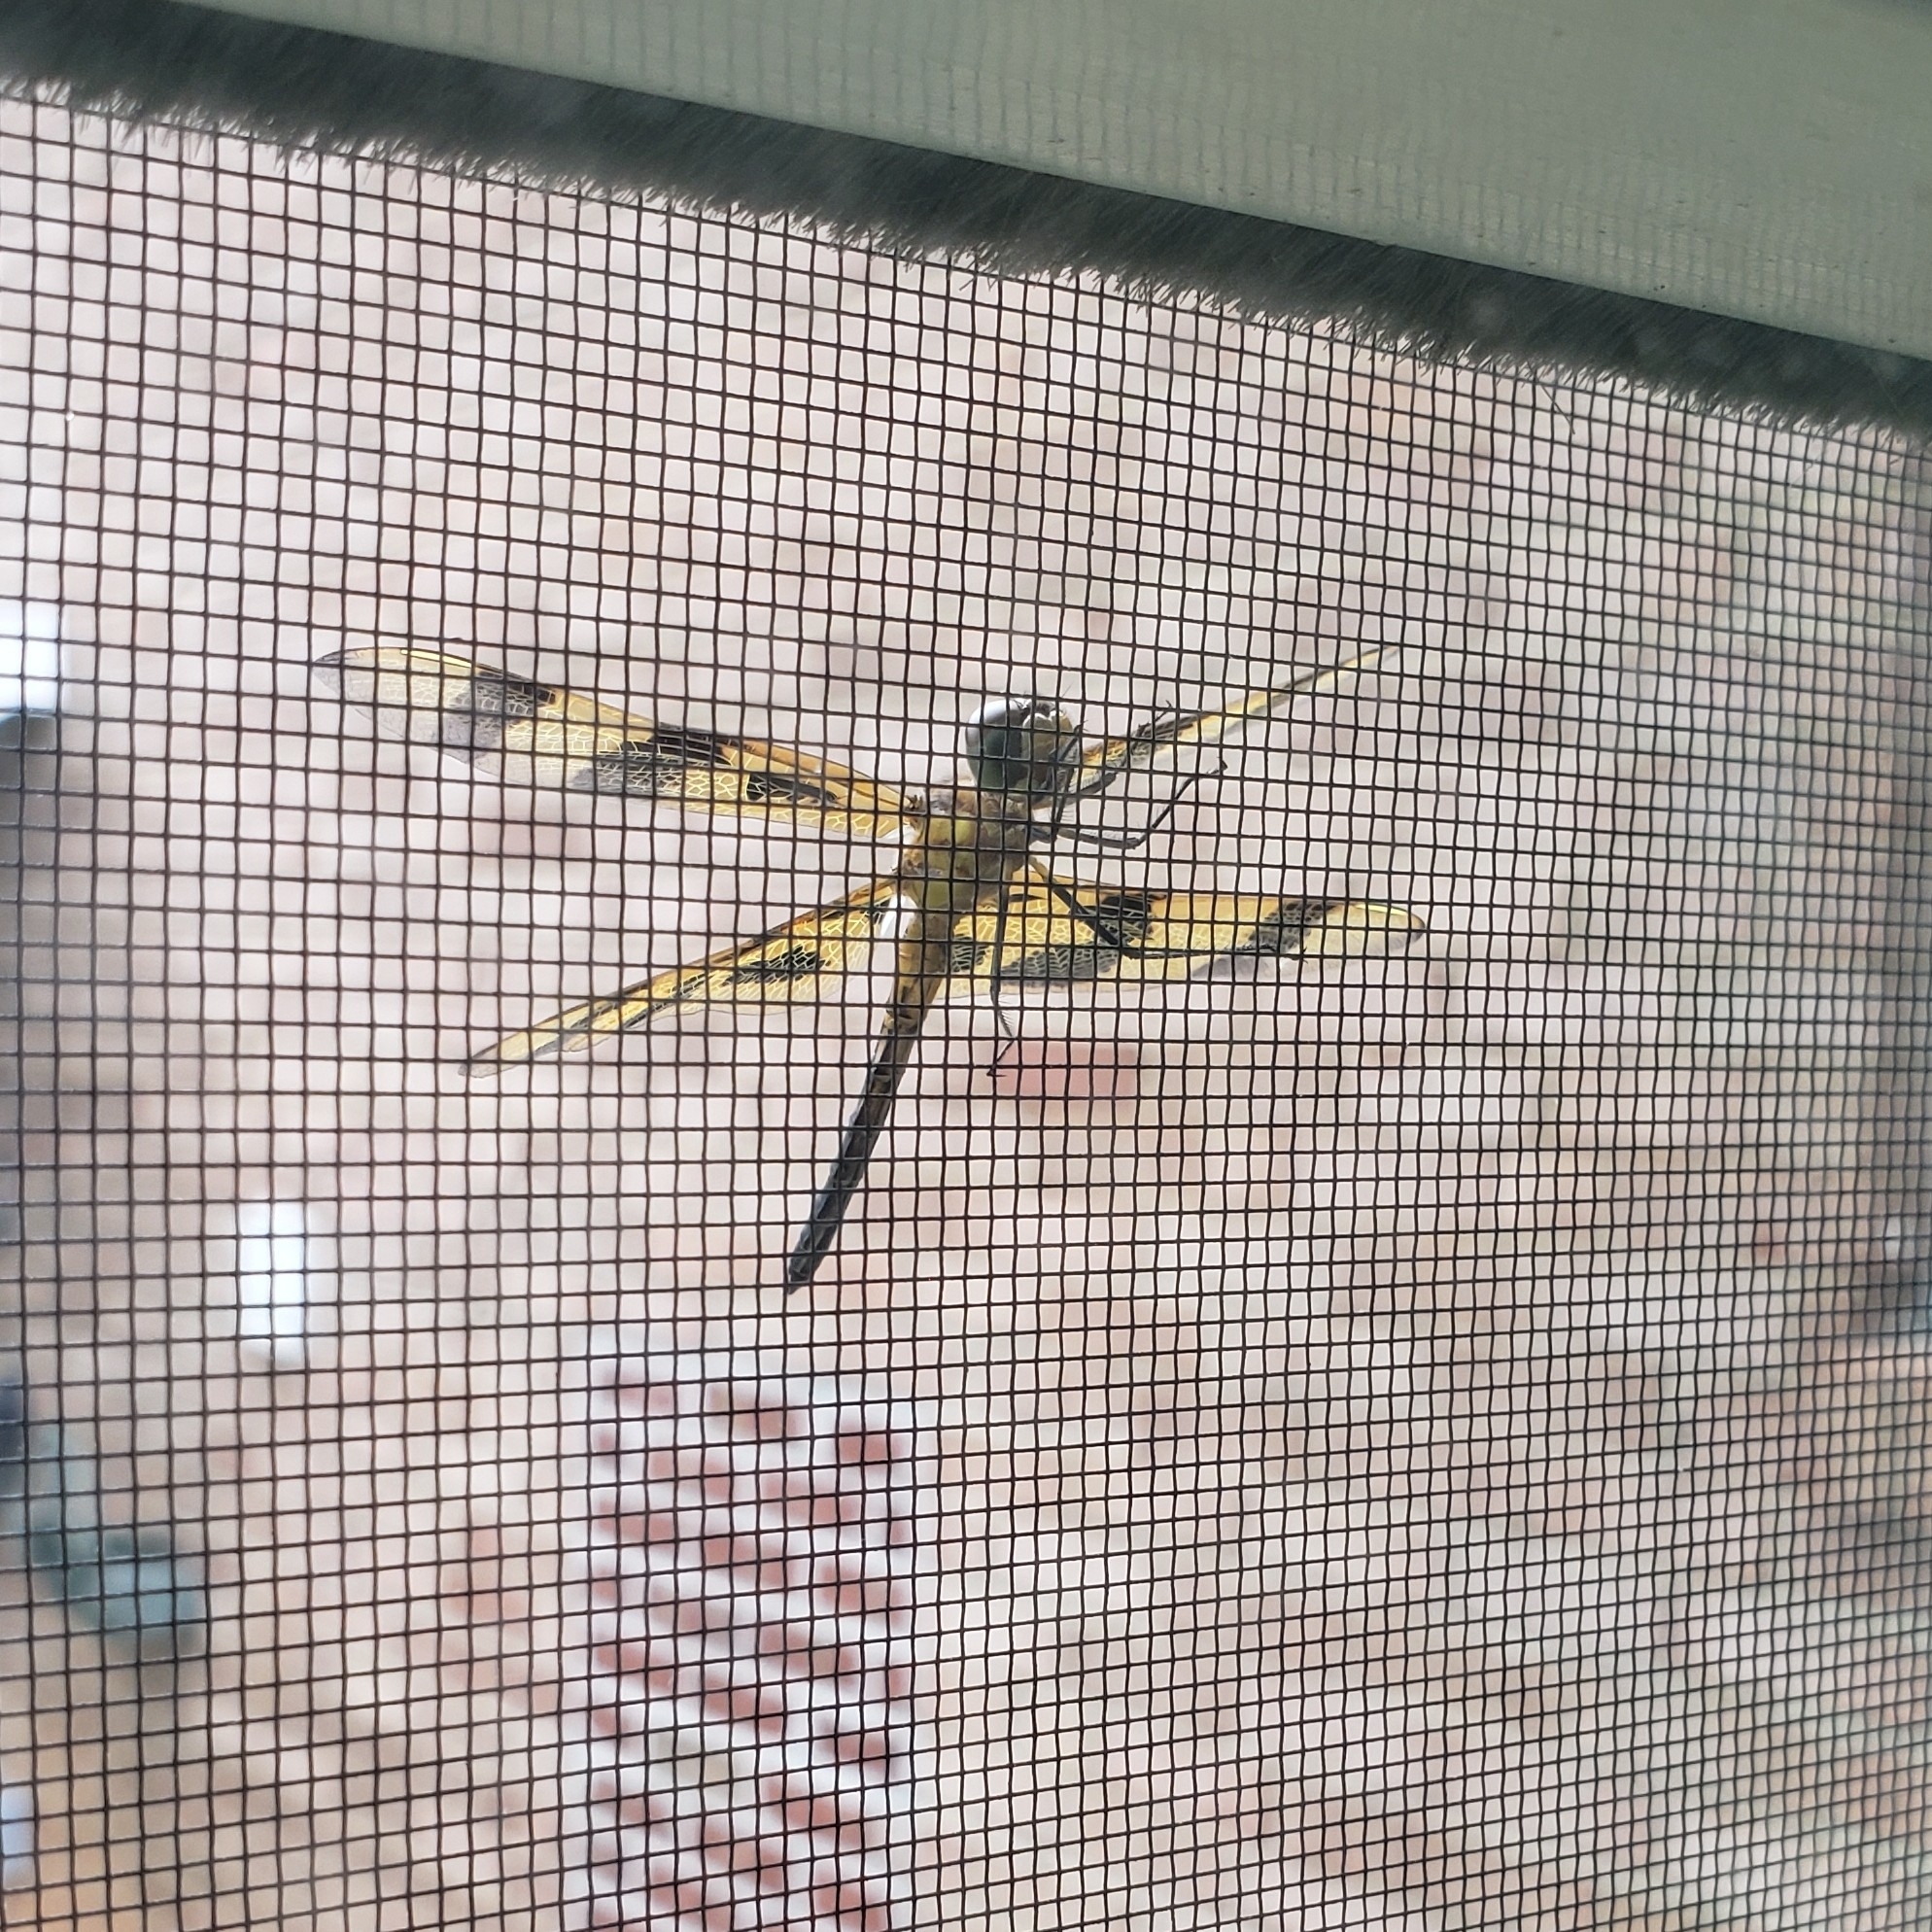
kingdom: Animalia
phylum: Arthropoda
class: Insecta
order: Odonata
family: Libellulidae
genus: Celithemis
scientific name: Celithemis eponina
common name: Halloween pennant
